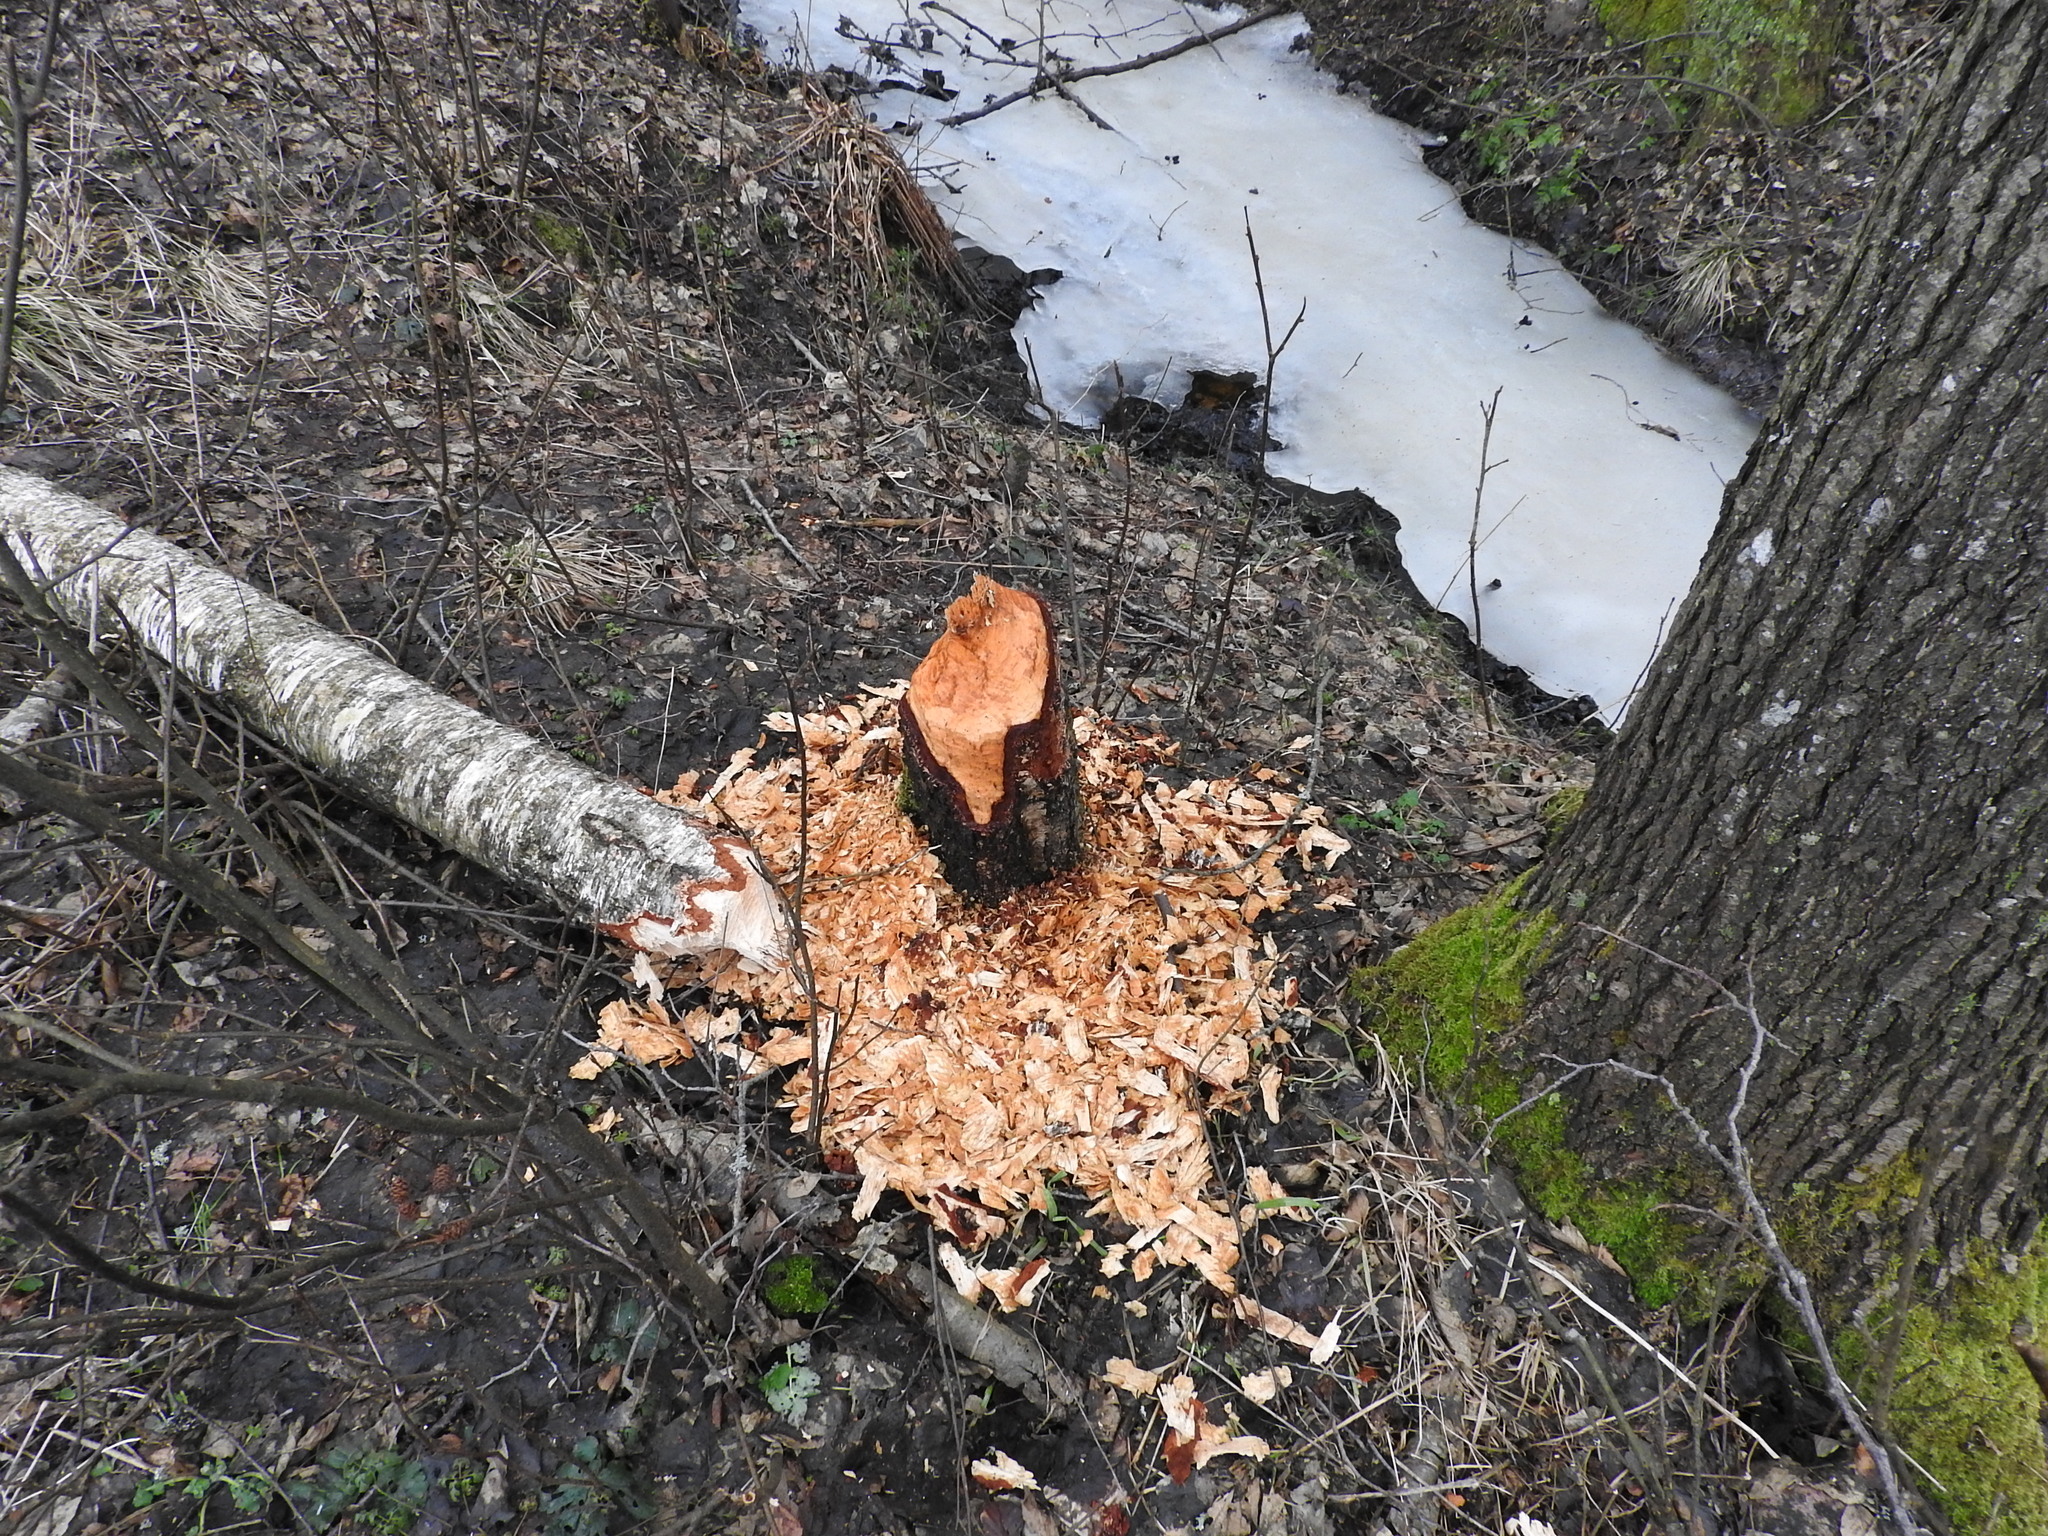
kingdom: Animalia
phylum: Chordata
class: Mammalia
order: Rodentia
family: Castoridae
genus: Castor
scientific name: Castor fiber
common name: Eurasian beaver
